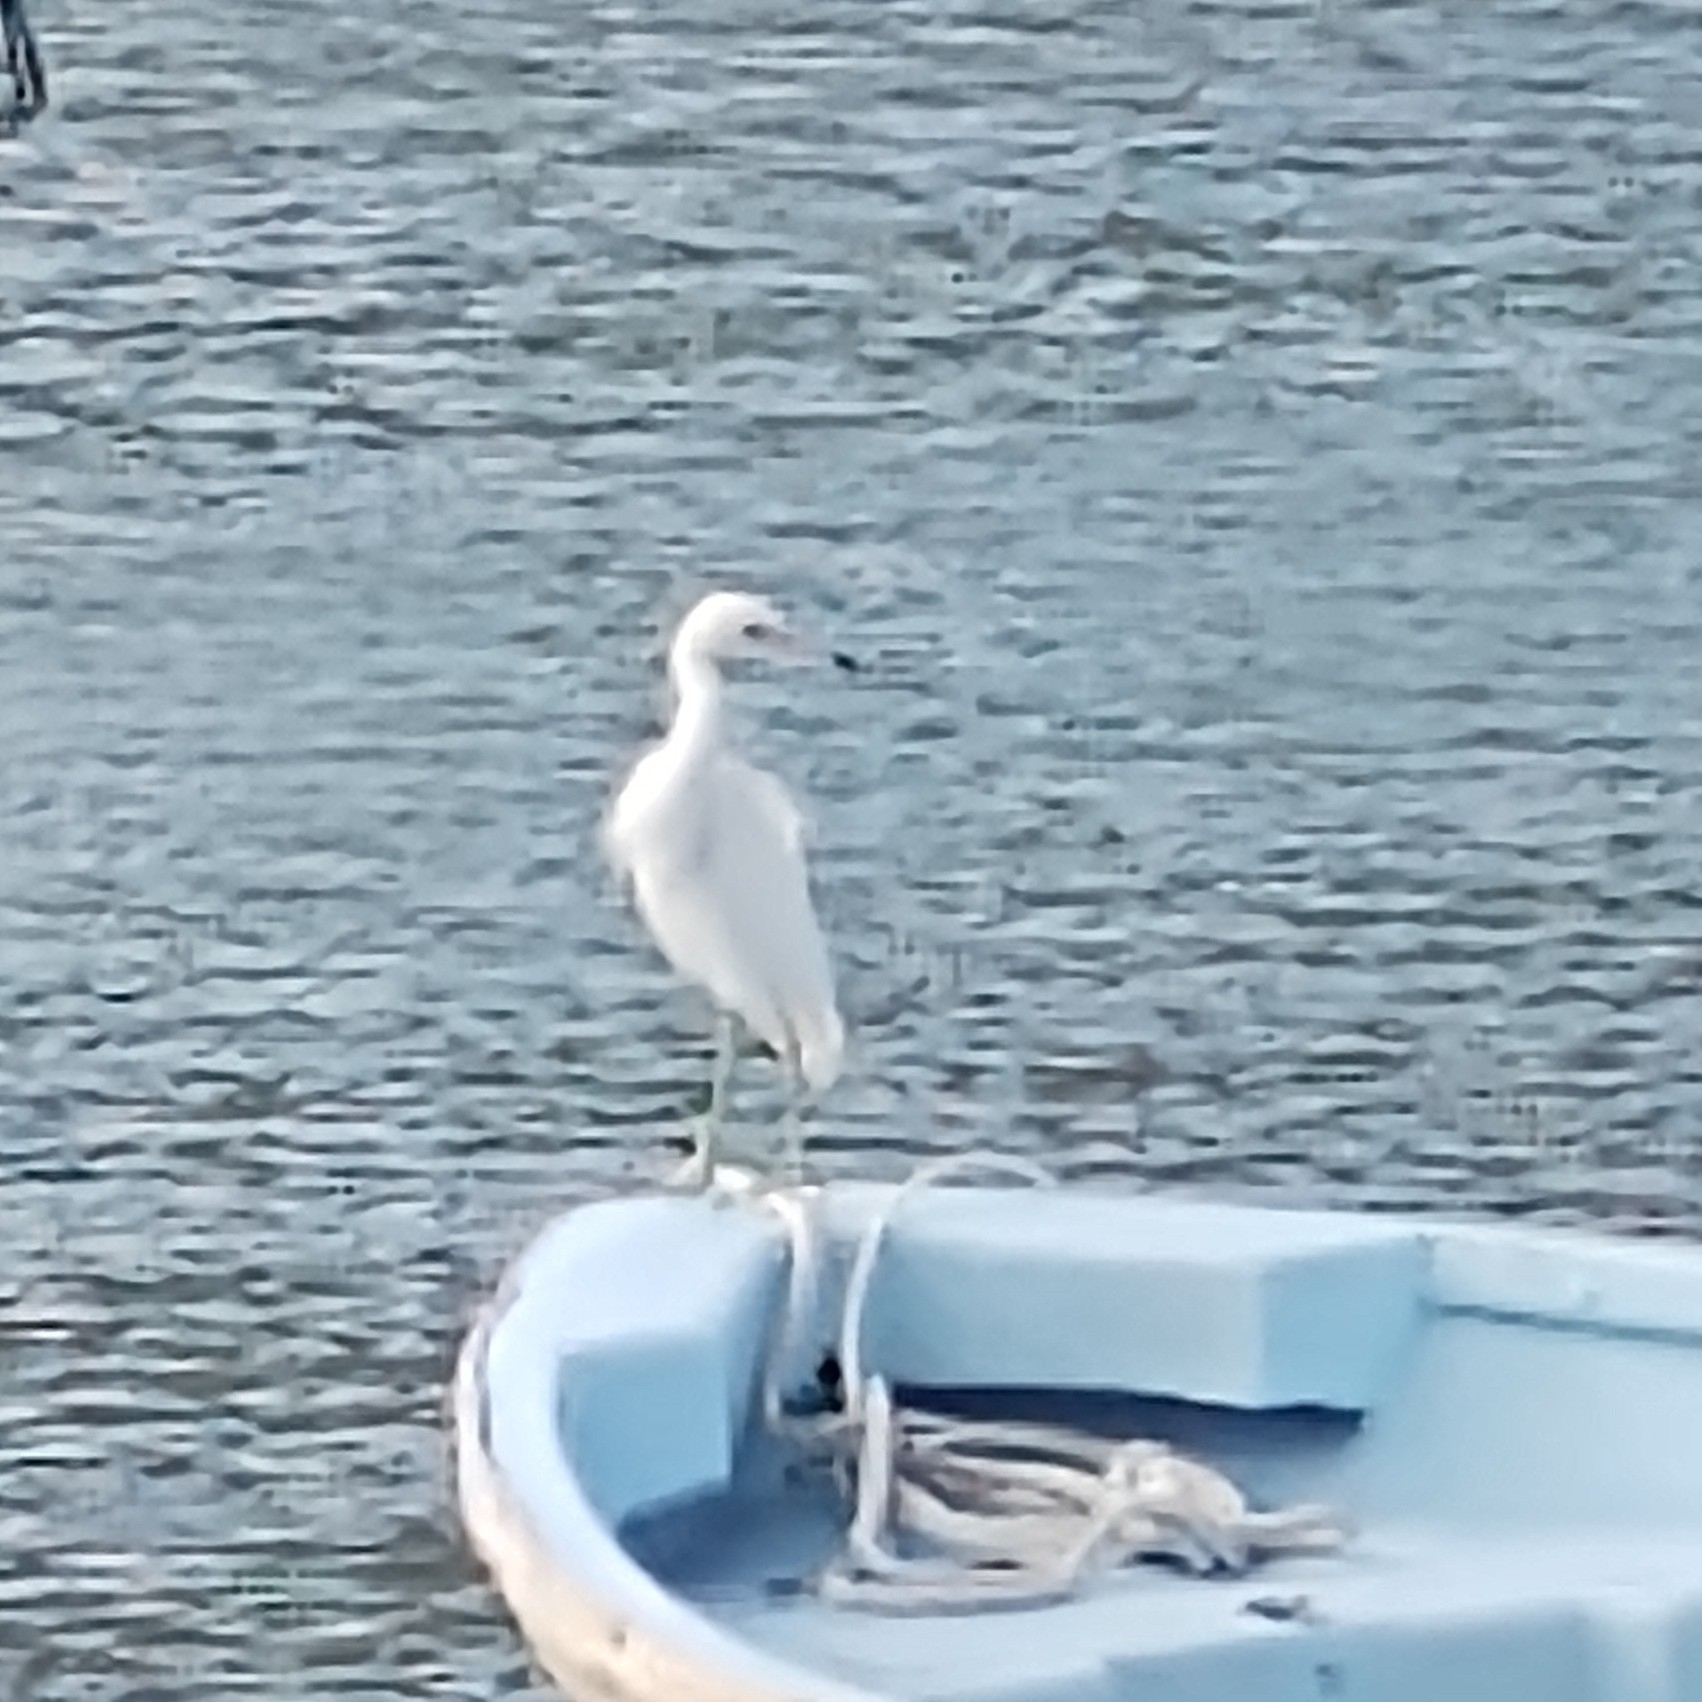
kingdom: Animalia
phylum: Chordata
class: Aves
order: Pelecaniformes
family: Ardeidae
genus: Egretta
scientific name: Egretta caerulea
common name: Little blue heron
